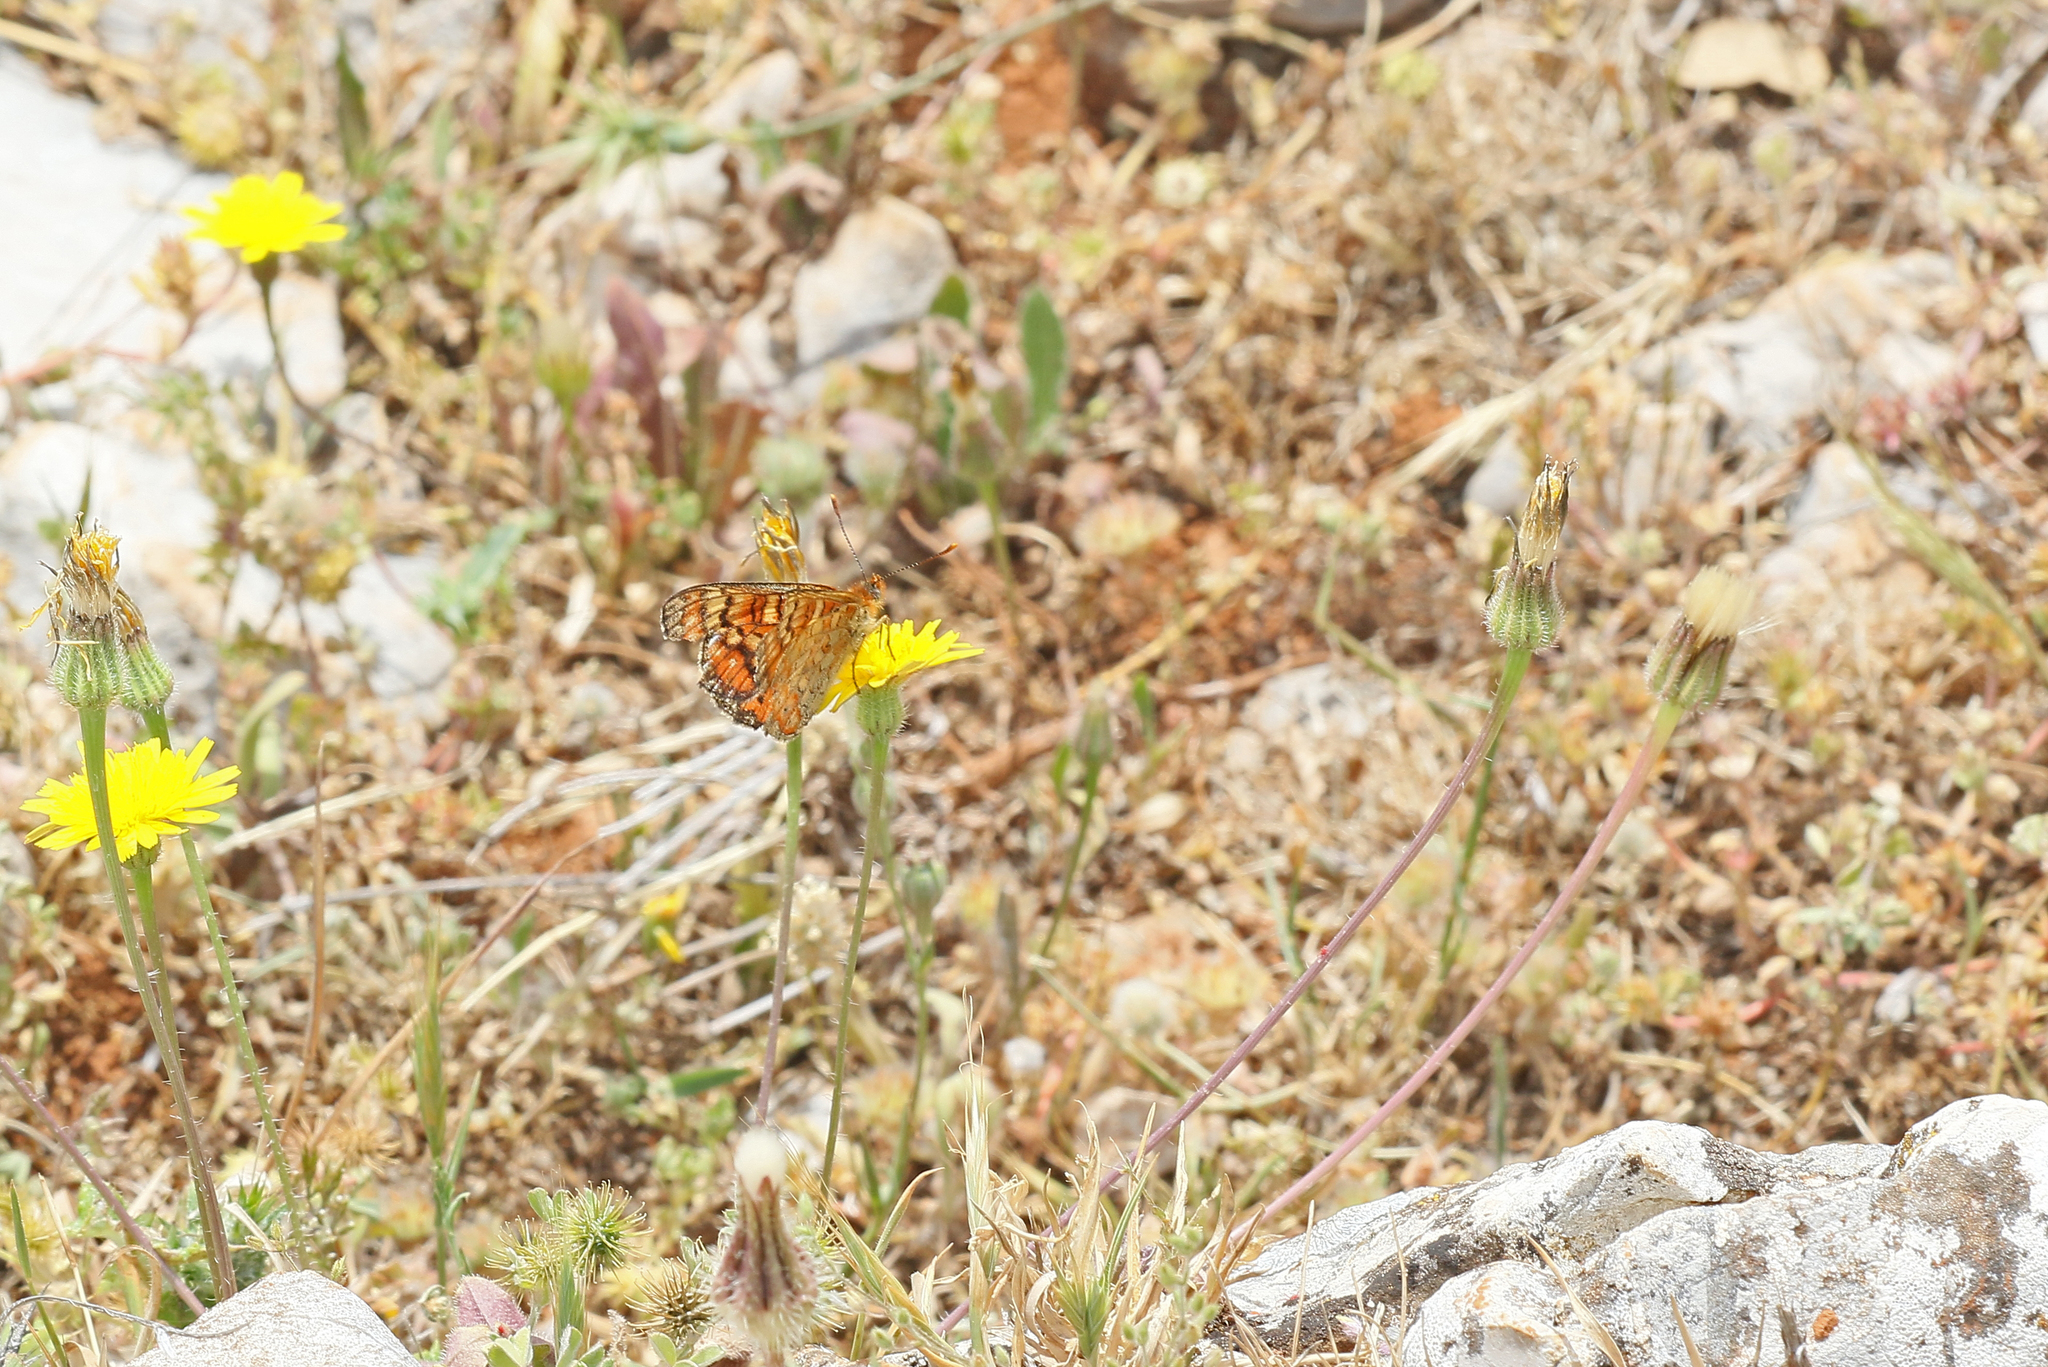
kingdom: Animalia
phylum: Arthropoda
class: Insecta
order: Lepidoptera
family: Nymphalidae
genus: Euphydryas
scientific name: Euphydryas desfontainii
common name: Spanish fritillary
